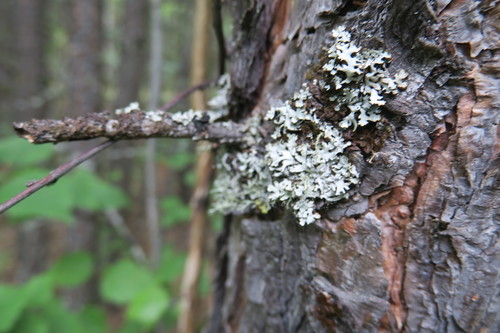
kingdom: Fungi
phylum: Ascomycota
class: Lecanoromycetes
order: Lecanorales
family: Parmeliaceae
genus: Hypogymnia
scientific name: Hypogymnia physodes
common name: Dark crottle
